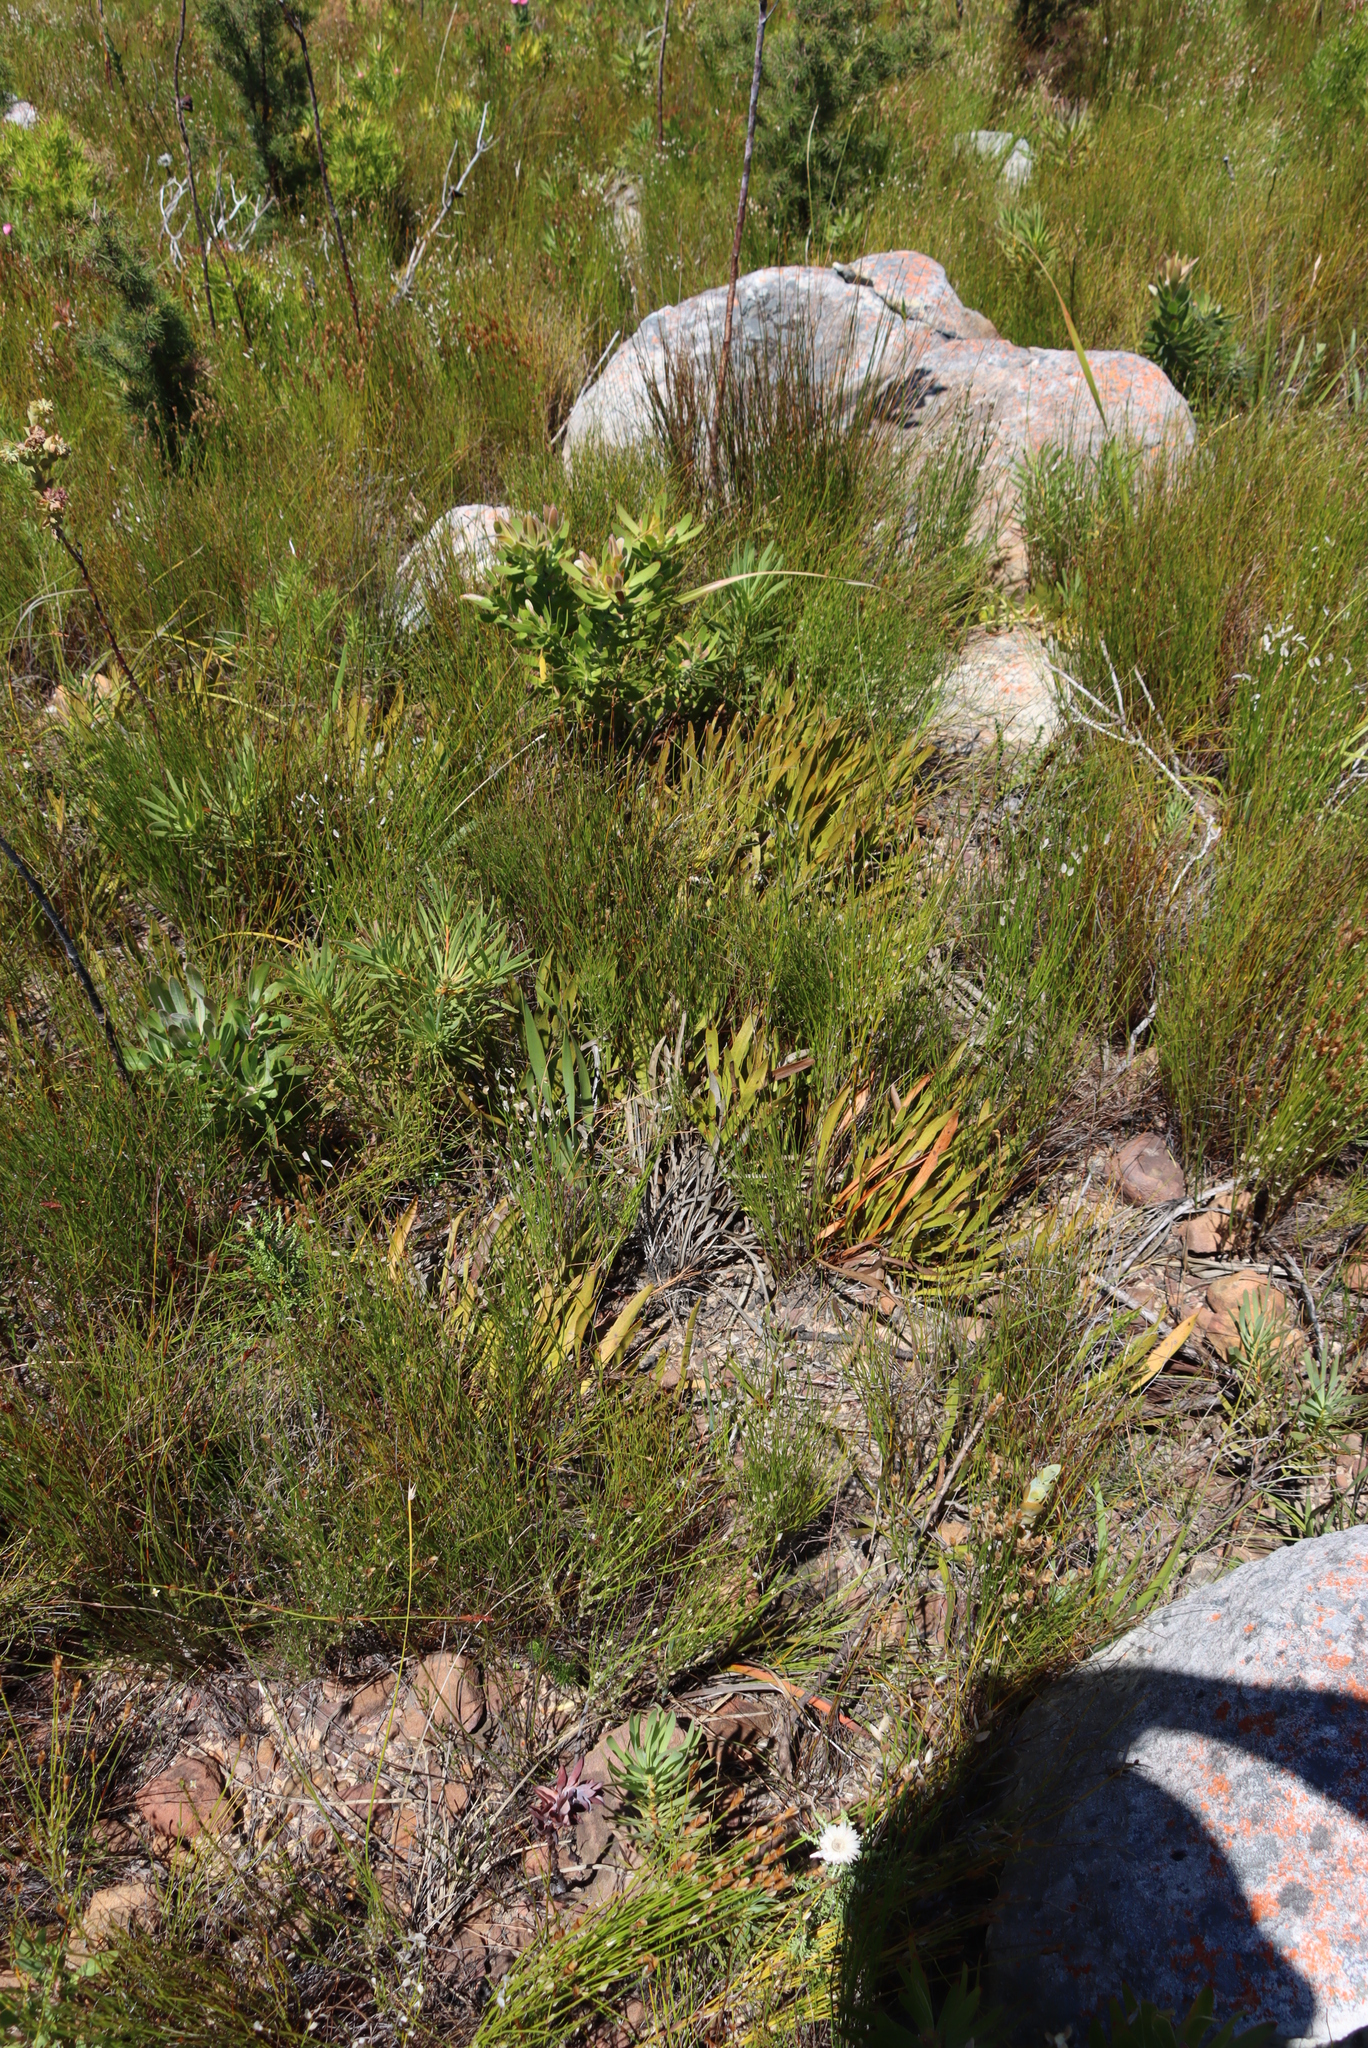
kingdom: Plantae
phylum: Tracheophyta
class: Magnoliopsida
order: Proteales
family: Proteaceae
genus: Protea
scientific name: Protea scabra
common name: Sandpaper-leaf sugarbush
